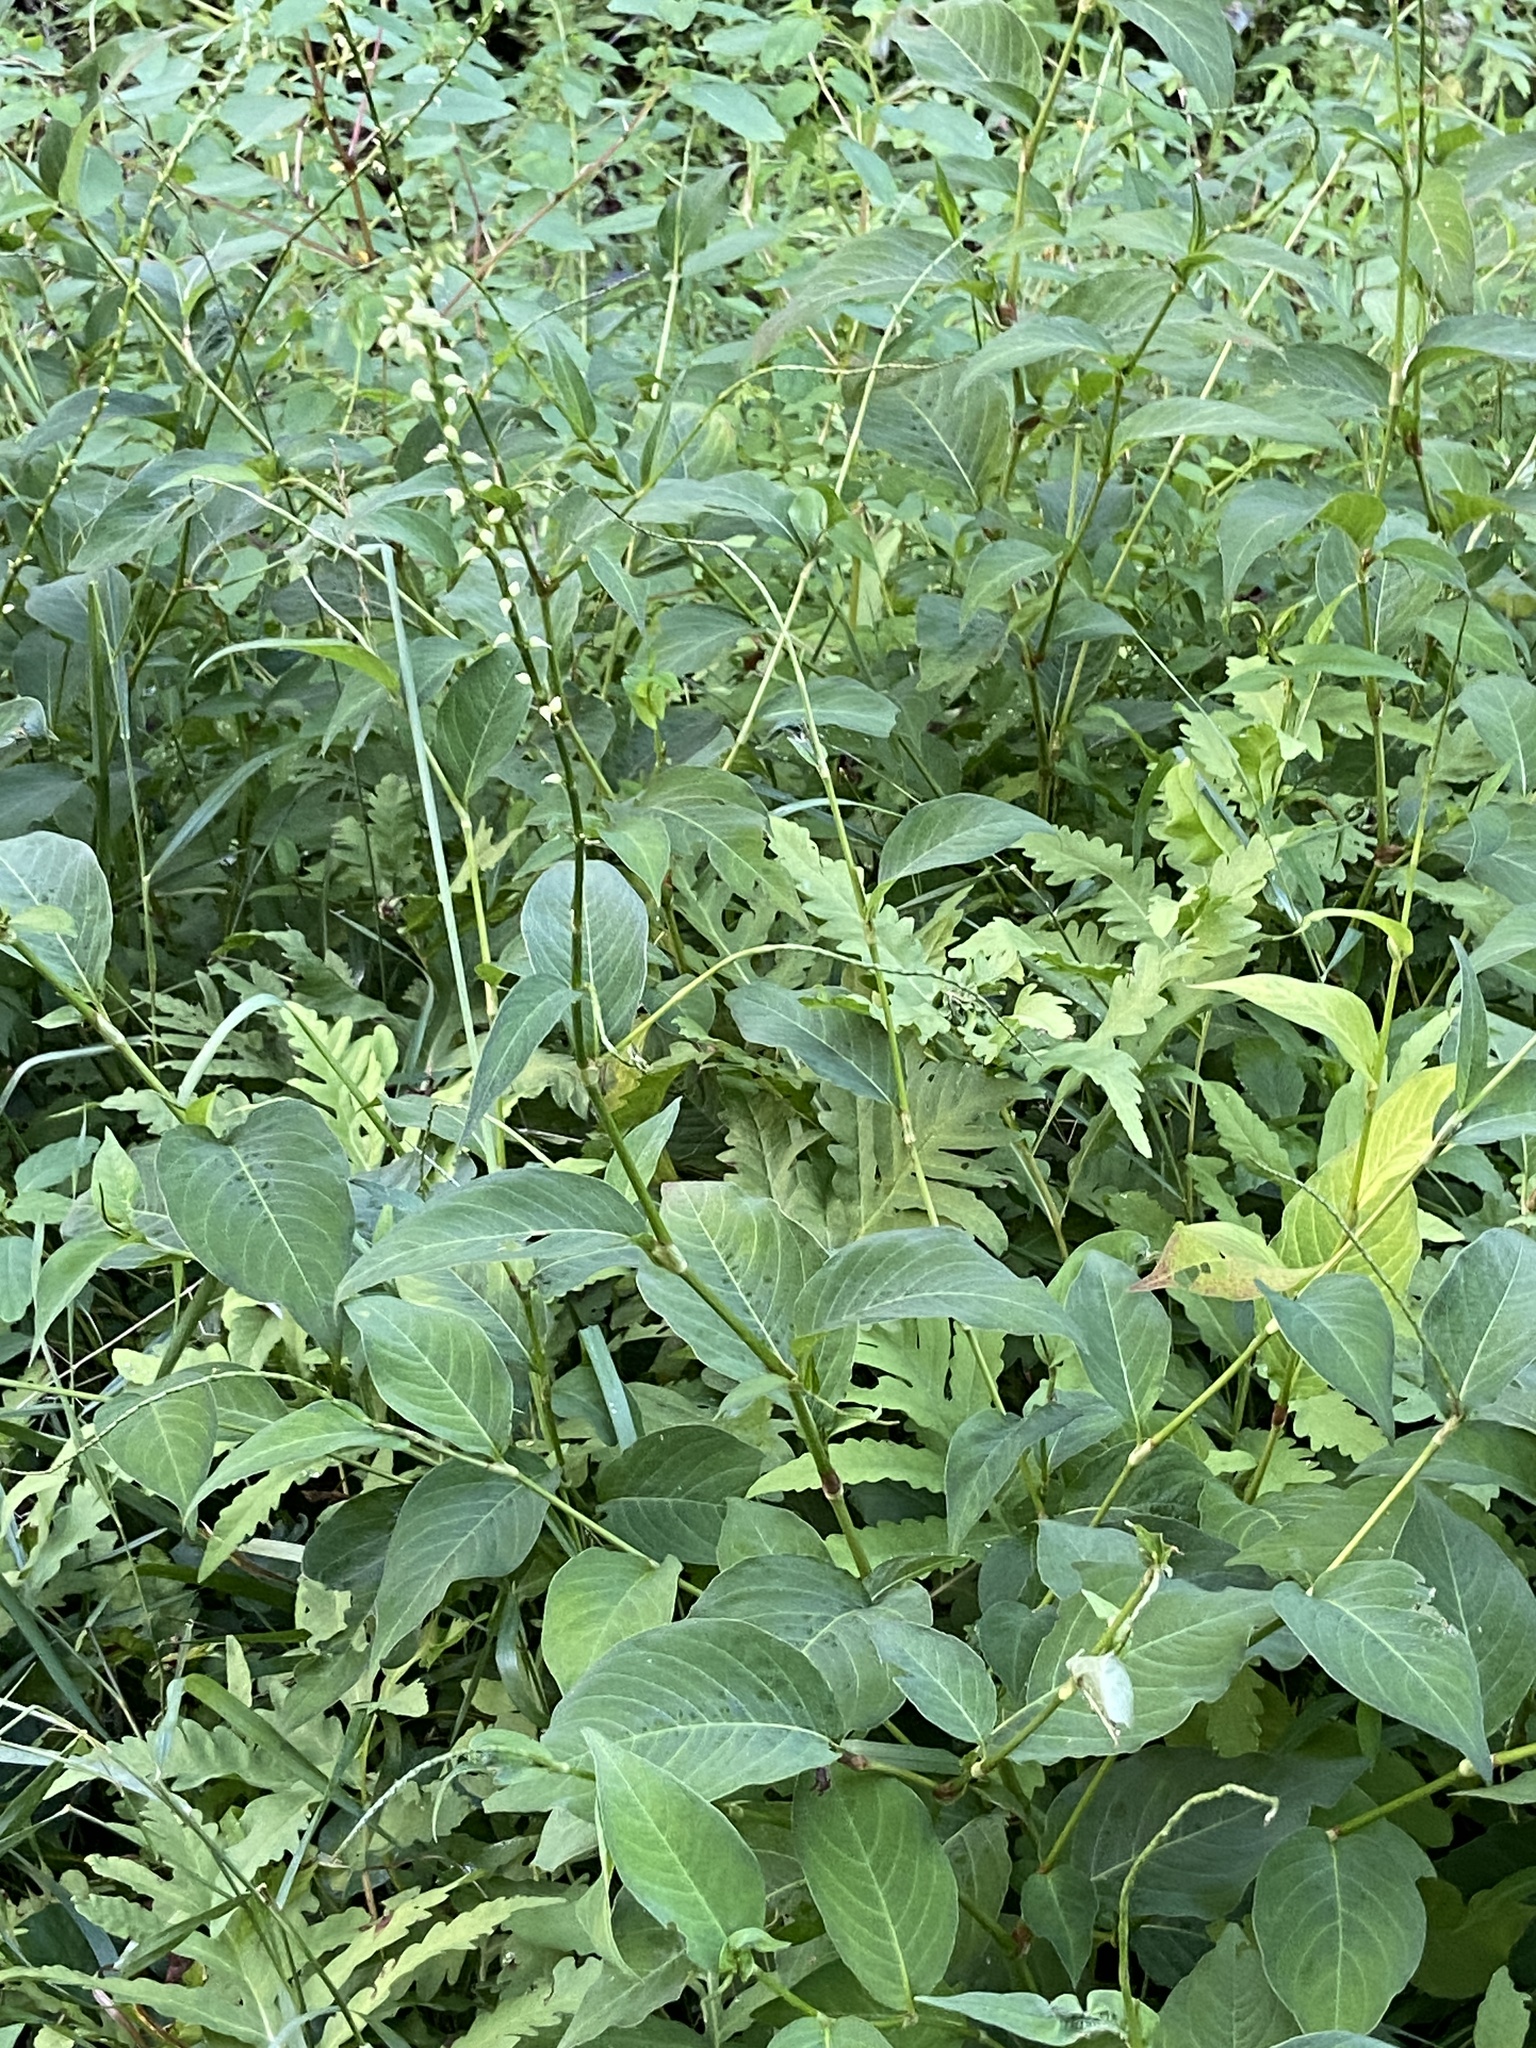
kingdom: Plantae
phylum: Tracheophyta
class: Magnoliopsida
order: Caryophyllales
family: Polygonaceae
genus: Persicaria
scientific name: Persicaria virginiana
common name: Jumpseed
